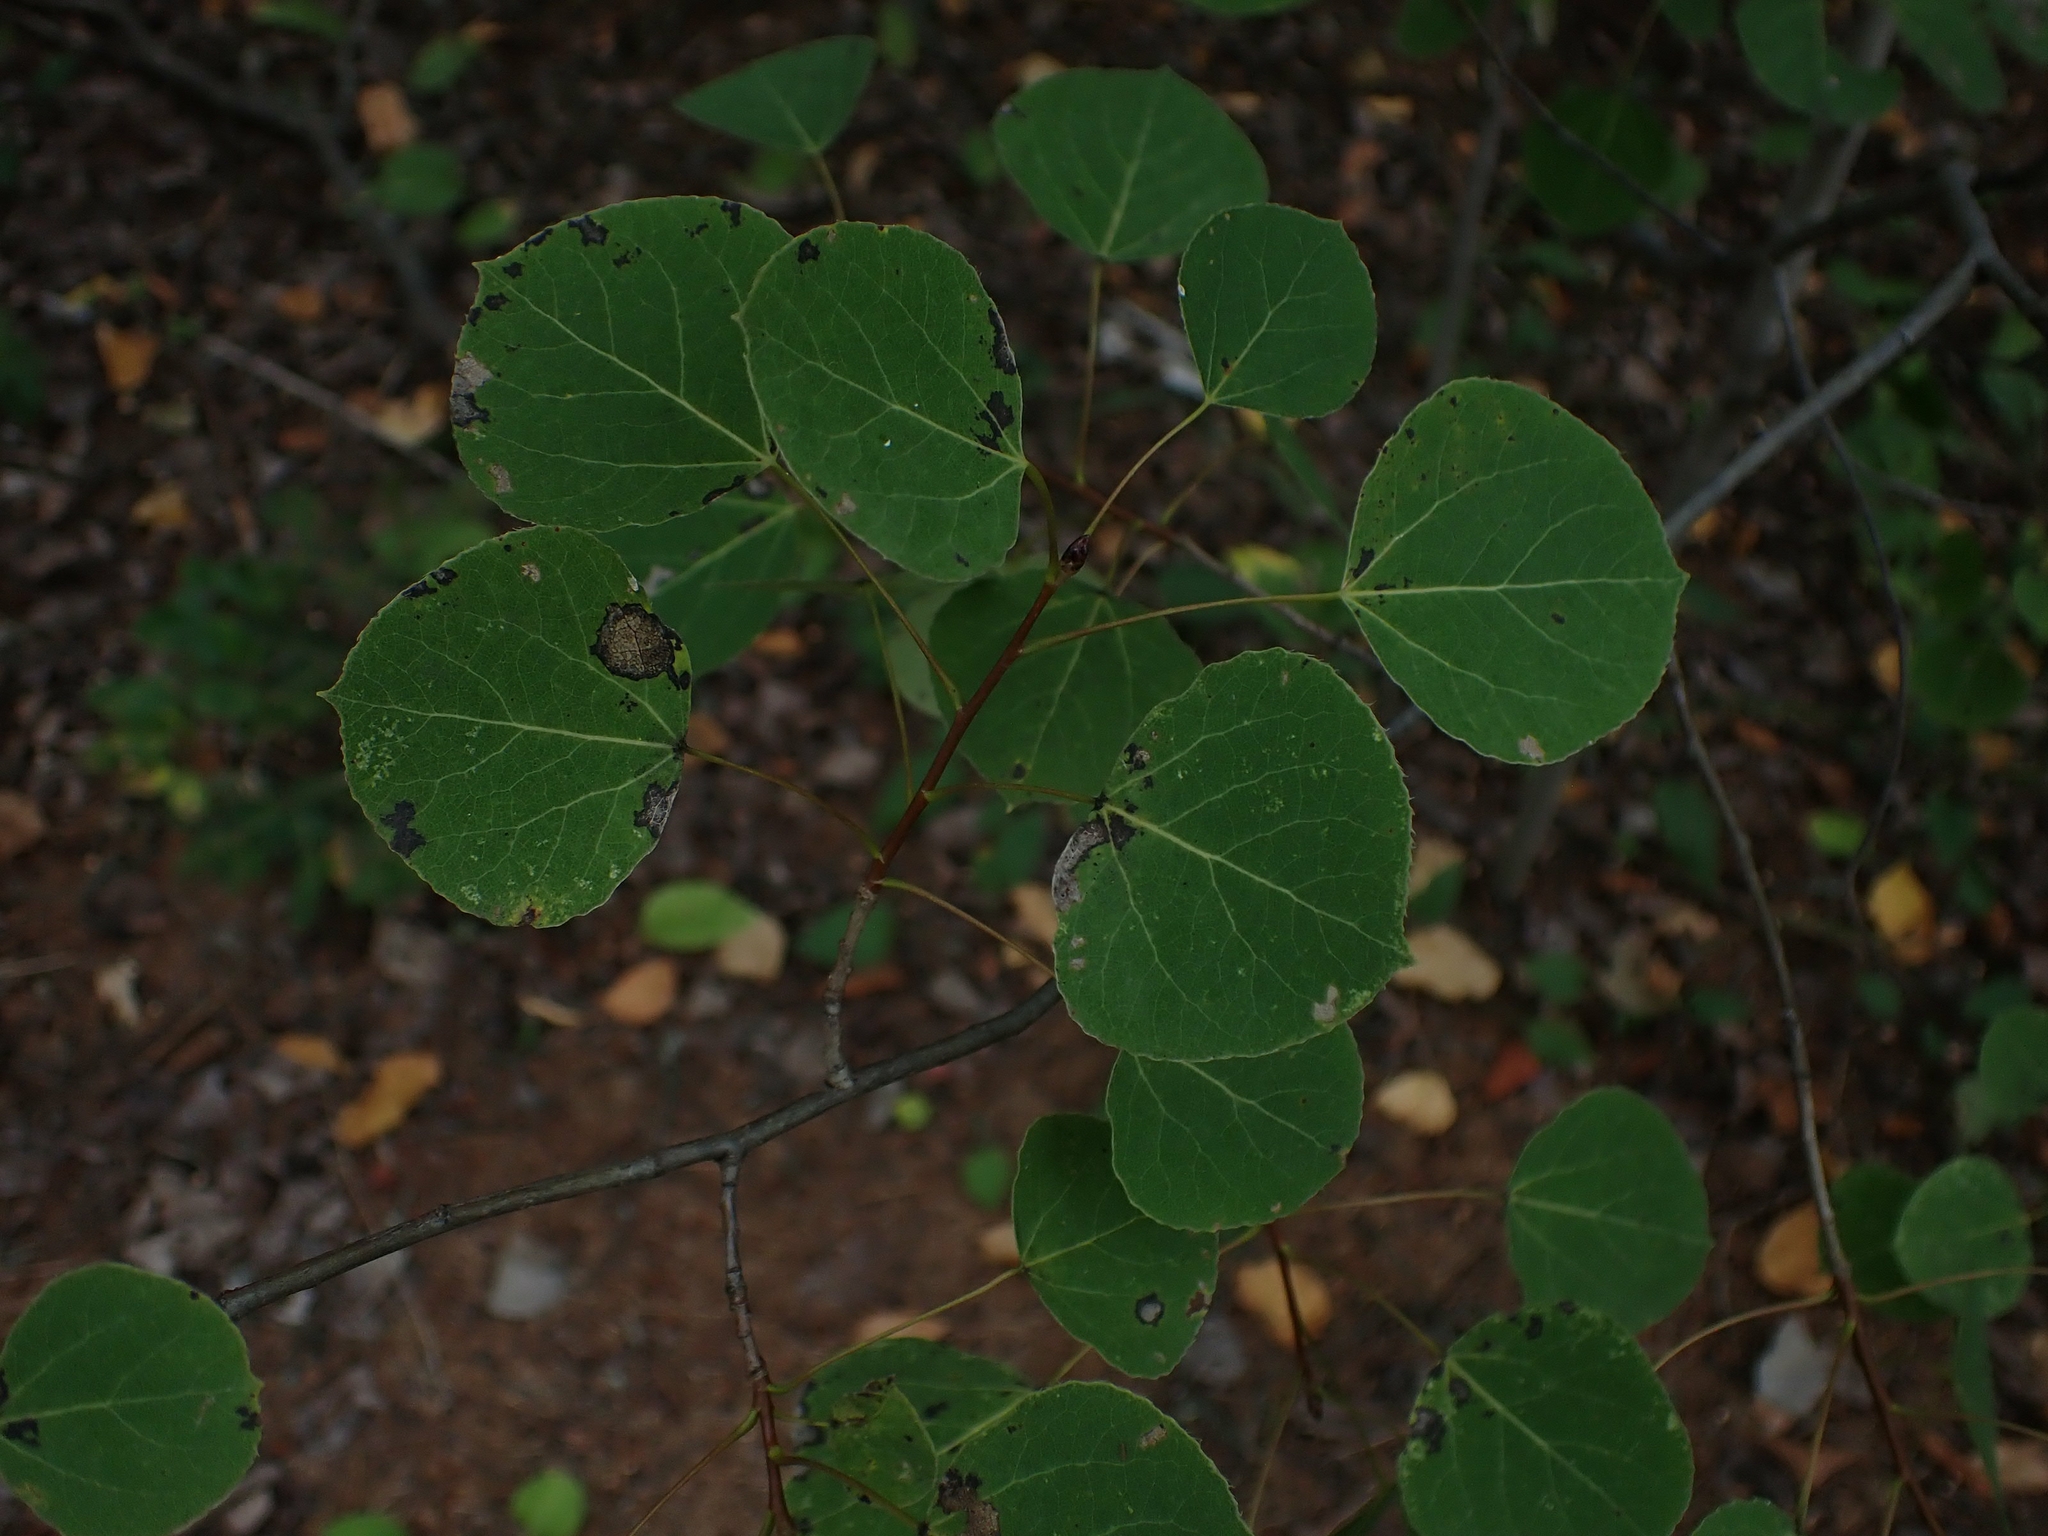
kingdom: Plantae
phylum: Tracheophyta
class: Magnoliopsida
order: Malpighiales
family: Salicaceae
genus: Populus
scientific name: Populus tremuloides
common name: Quaking aspen
